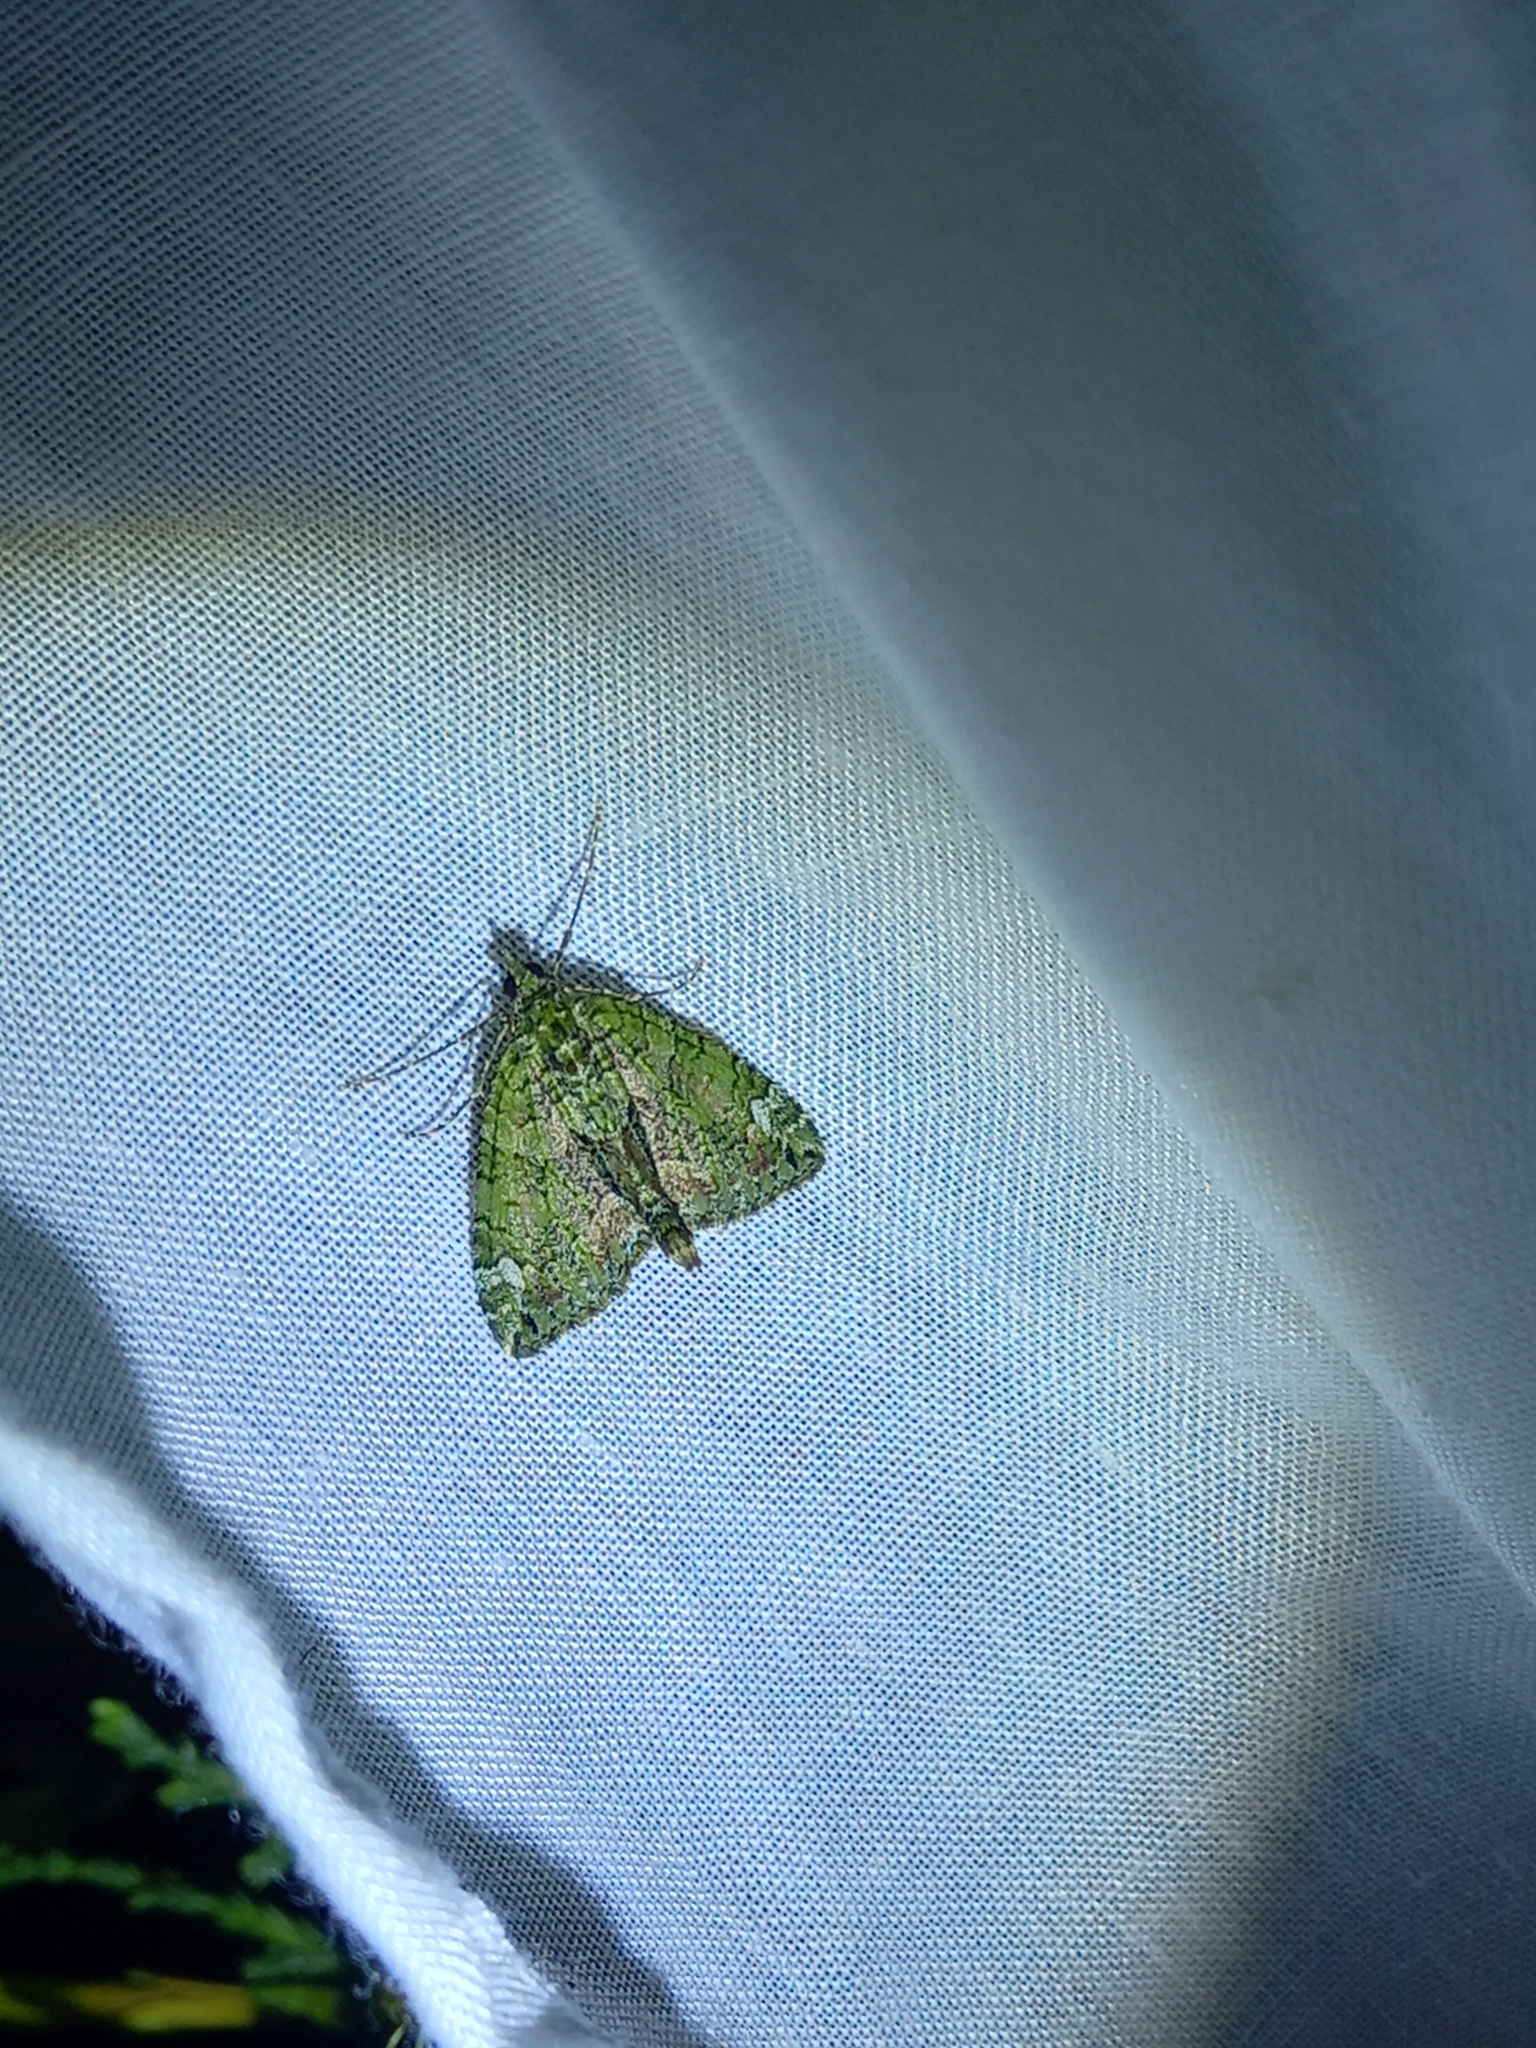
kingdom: Animalia
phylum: Arthropoda
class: Insecta
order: Lepidoptera
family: Geometridae
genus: Chloroclysta
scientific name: Chloroclysta siterata
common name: Red-green carpet
